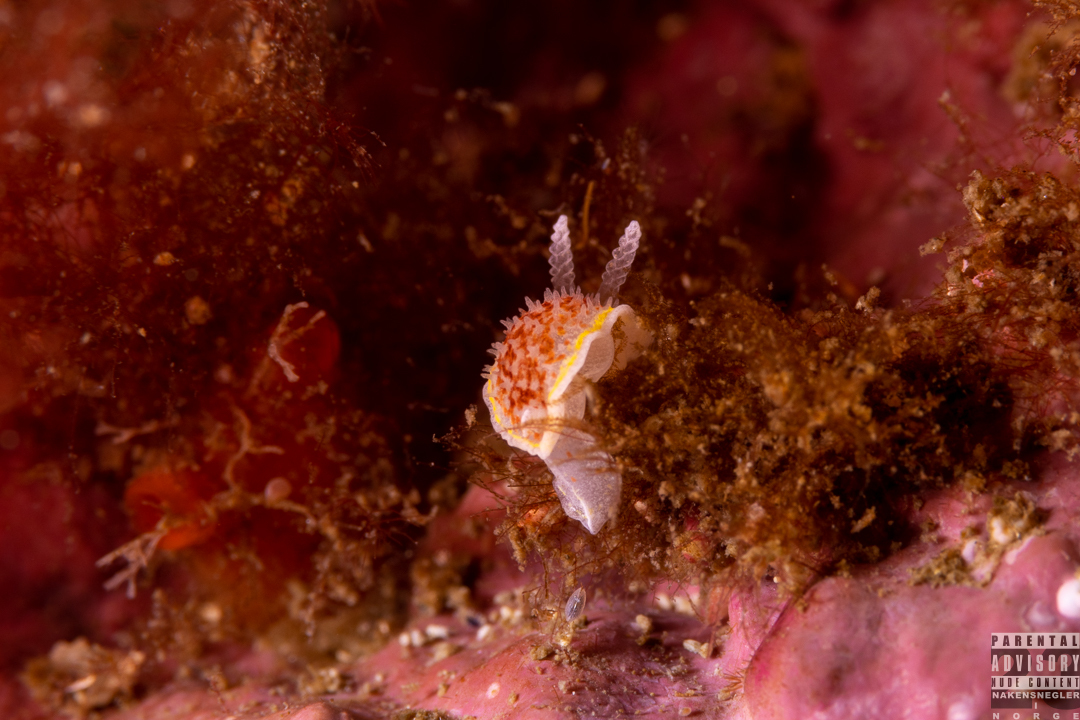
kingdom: Animalia
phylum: Mollusca
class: Gastropoda
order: Nudibranchia
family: Calycidorididae
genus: Diaphorodoris
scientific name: Diaphorodoris luteocincta
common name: Fried egg nudibranch
